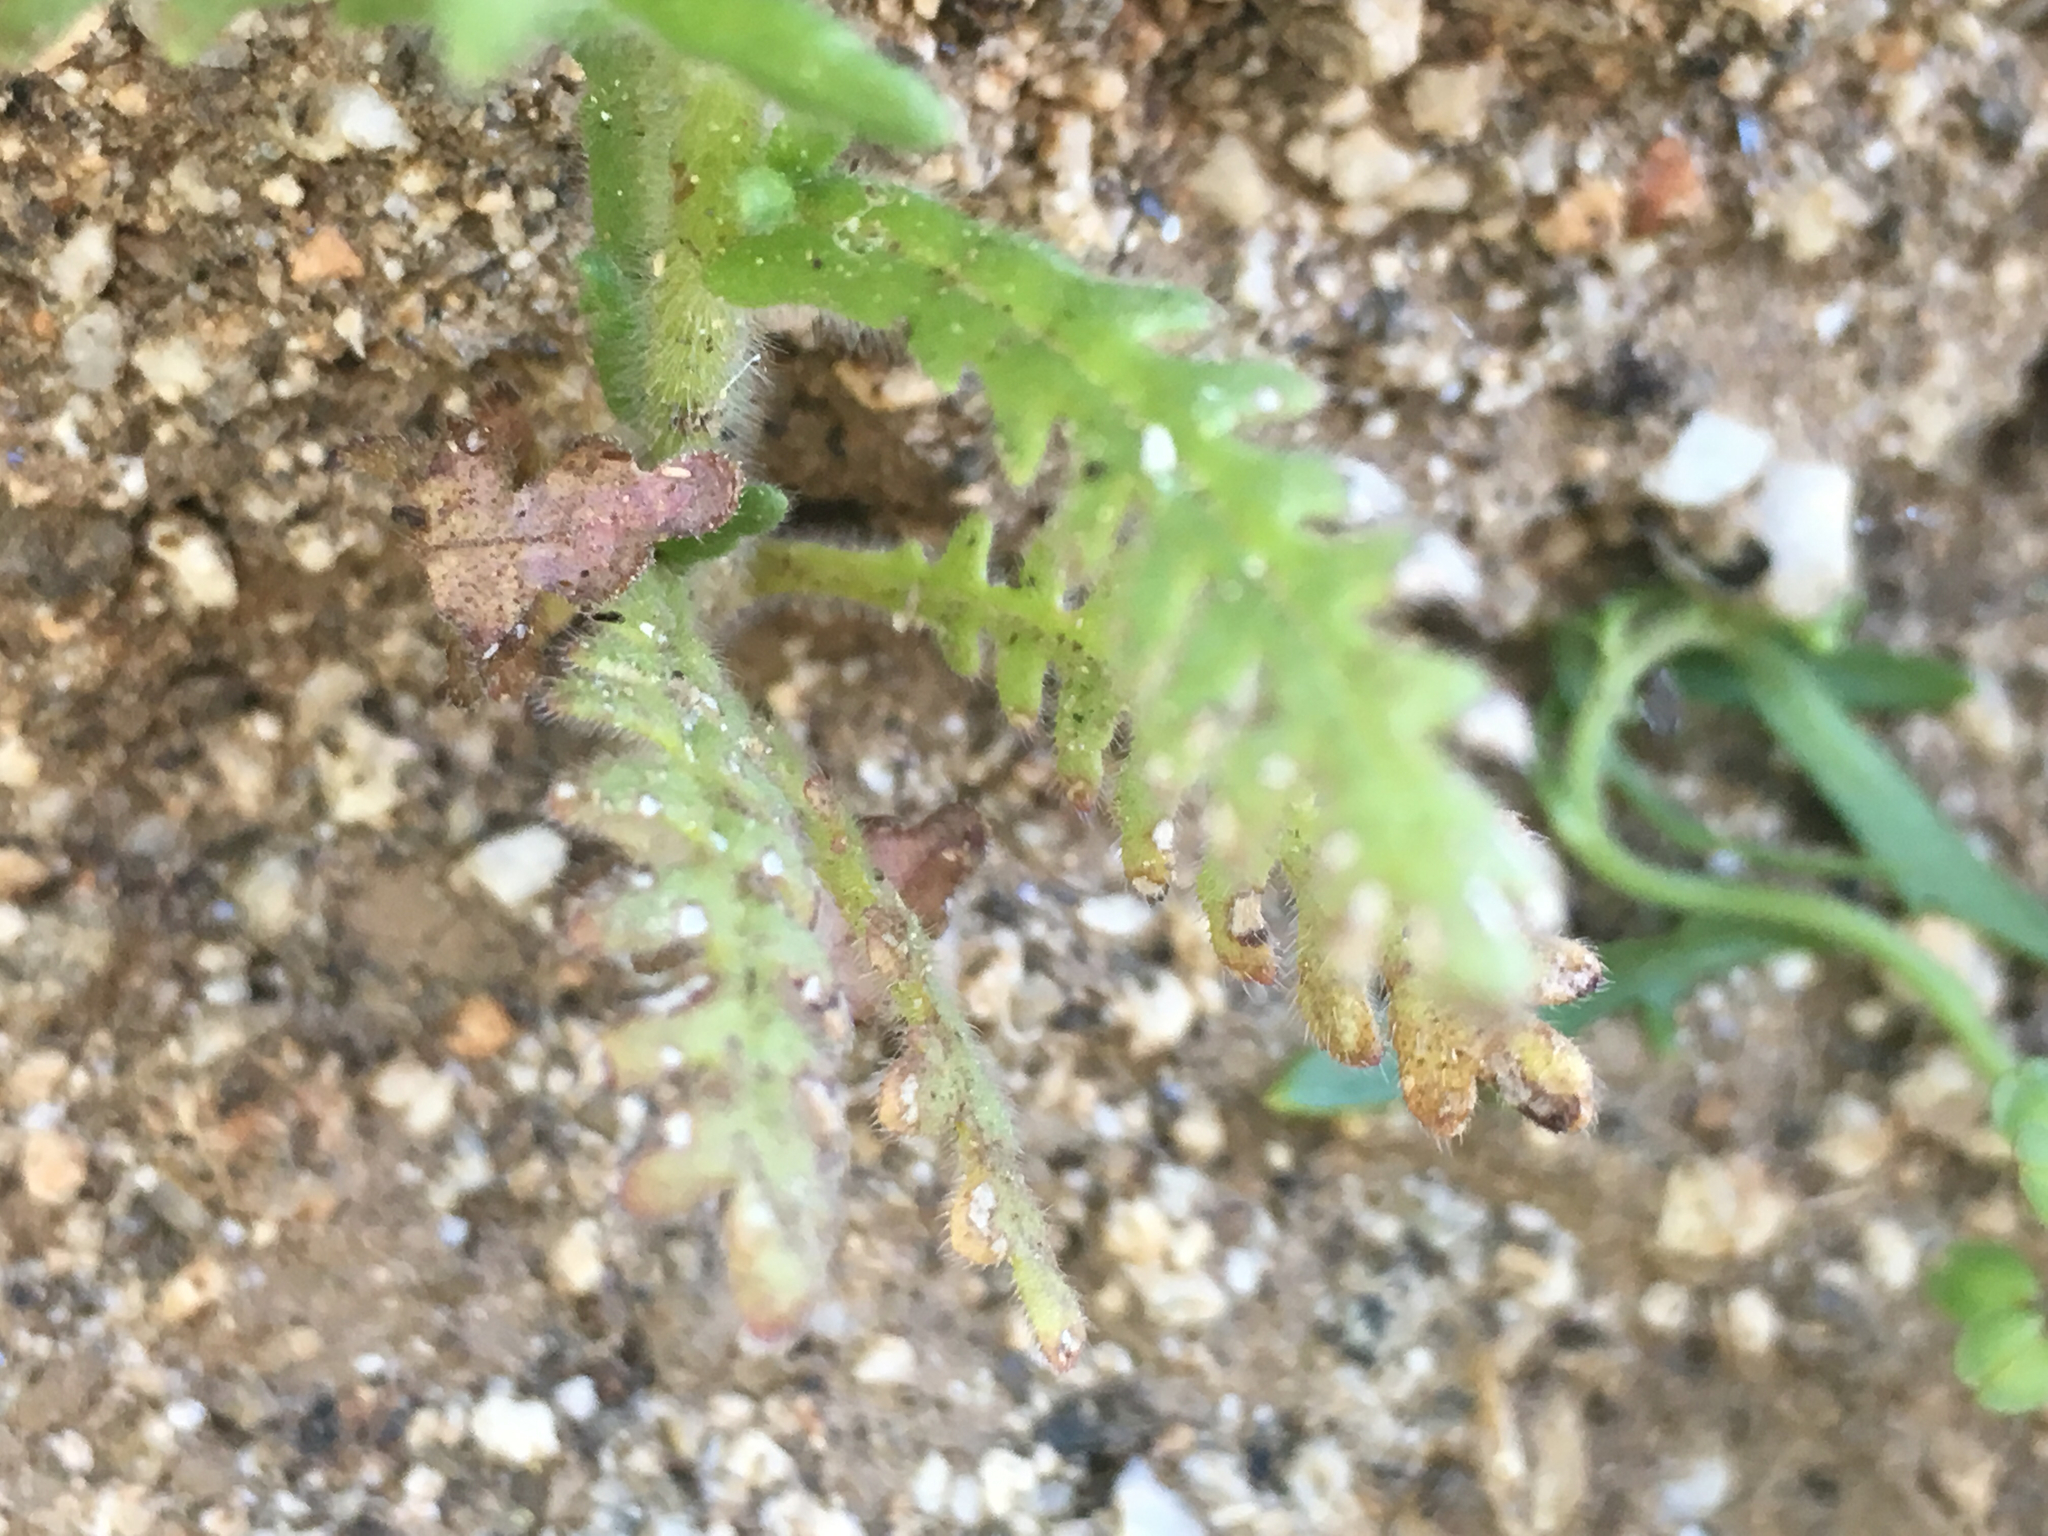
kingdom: Plantae
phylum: Tracheophyta
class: Magnoliopsida
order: Boraginales
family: Hydrophyllaceae
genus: Emmenanthe
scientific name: Emmenanthe penduliflora
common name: Whispering-bells
